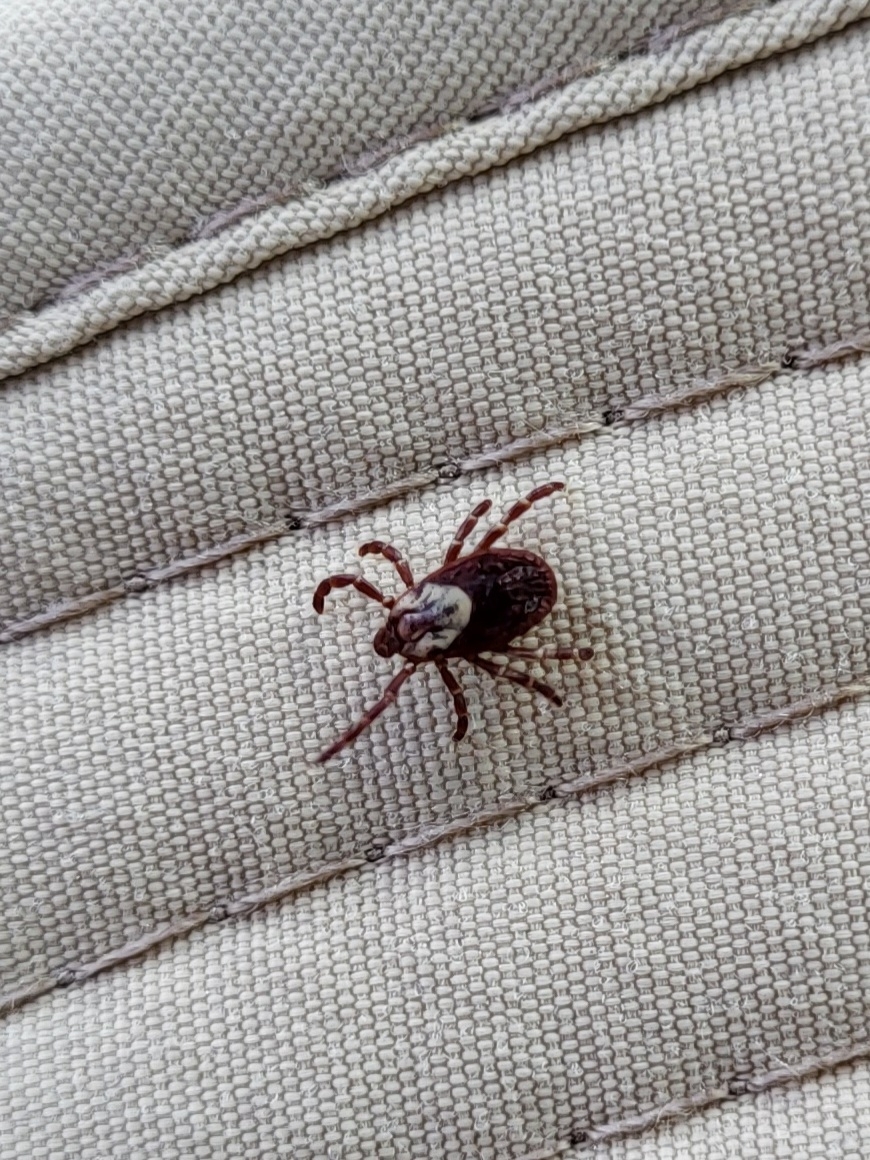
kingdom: Animalia
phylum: Arthropoda
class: Arachnida
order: Ixodida
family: Ixodidae
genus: Dermacentor
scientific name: Dermacentor variabilis
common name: American dog tick
